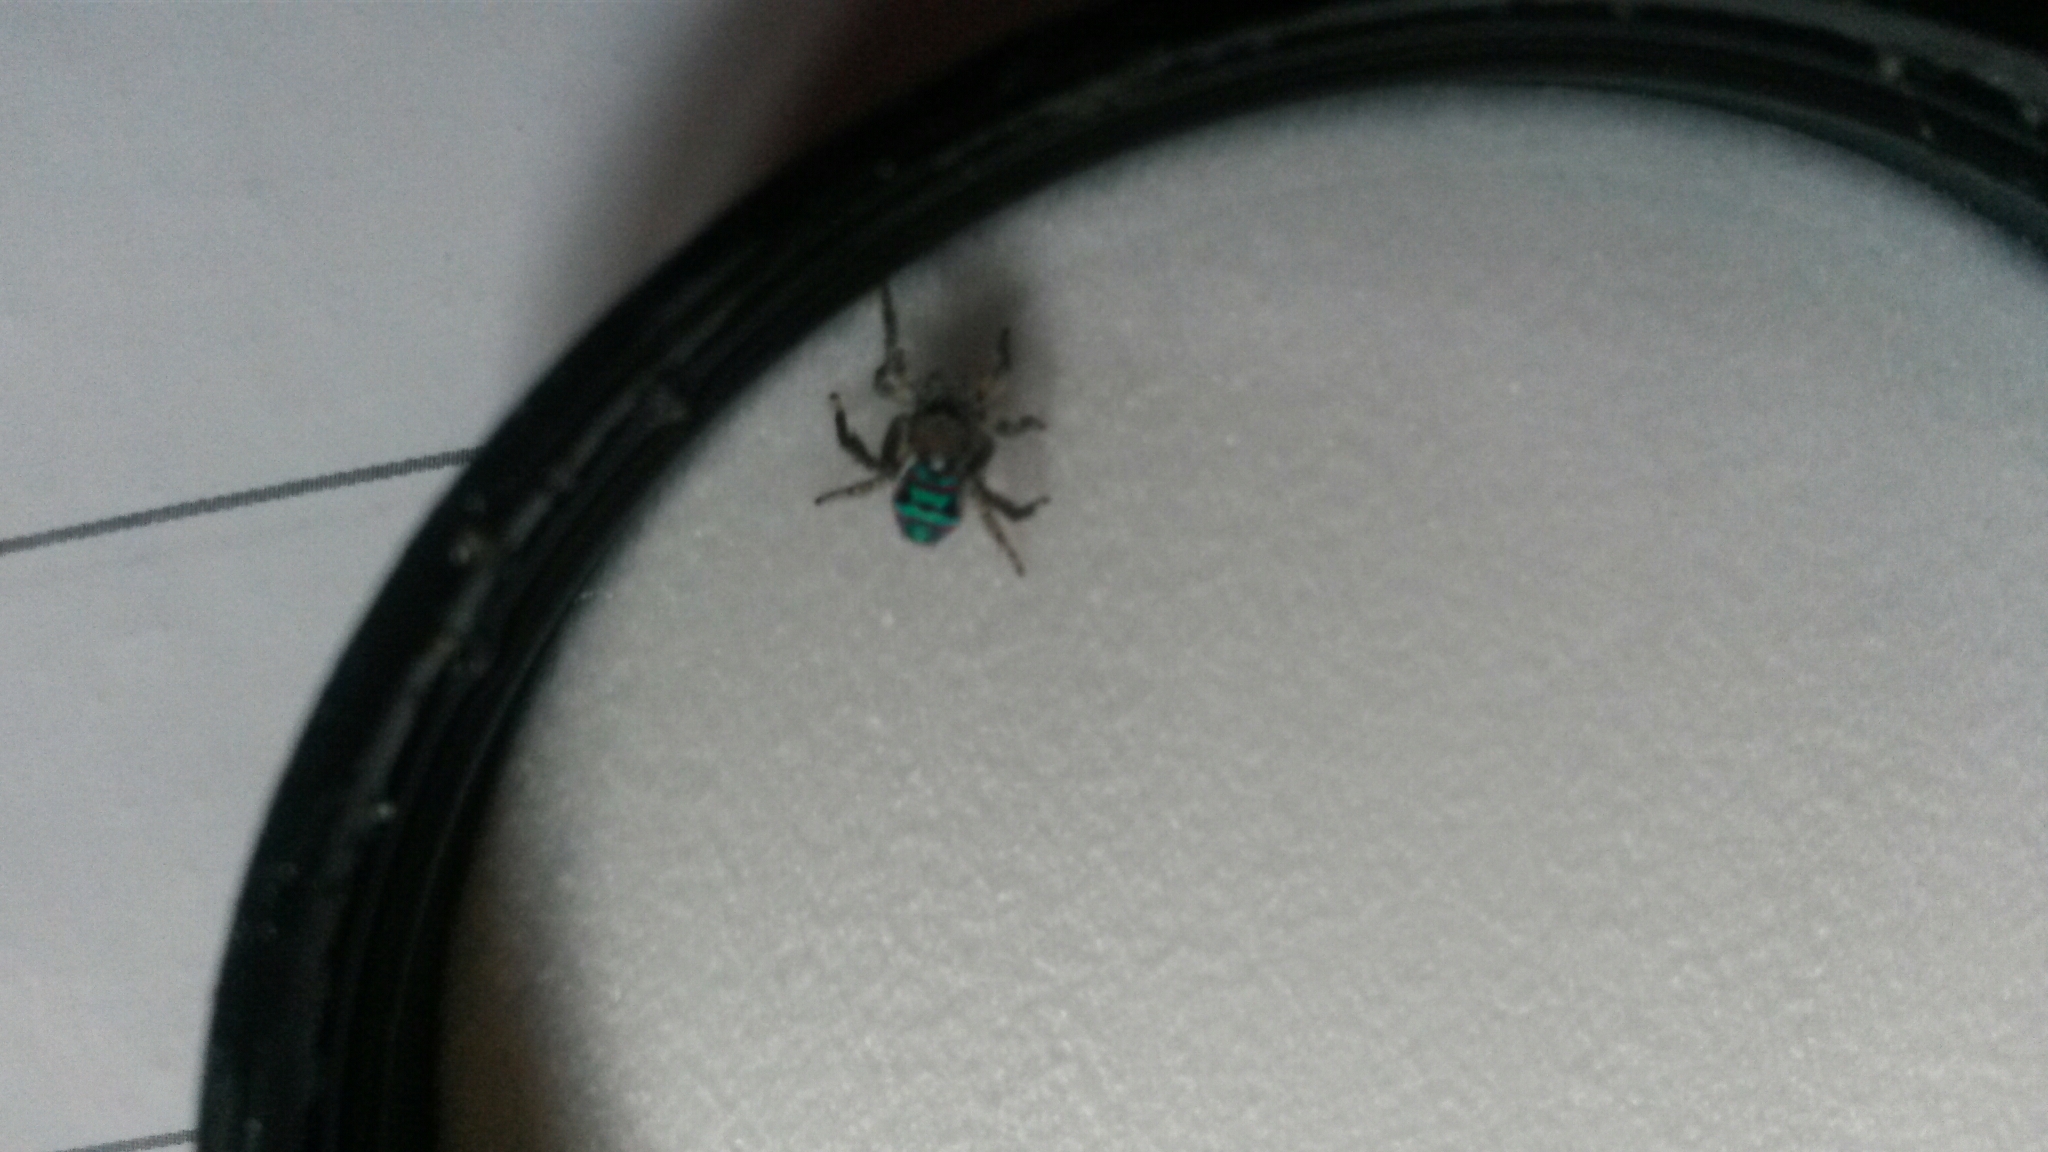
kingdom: Animalia
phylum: Arthropoda
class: Arachnida
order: Araneae
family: Salticidae
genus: Maratus
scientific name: Maratus speciosus
